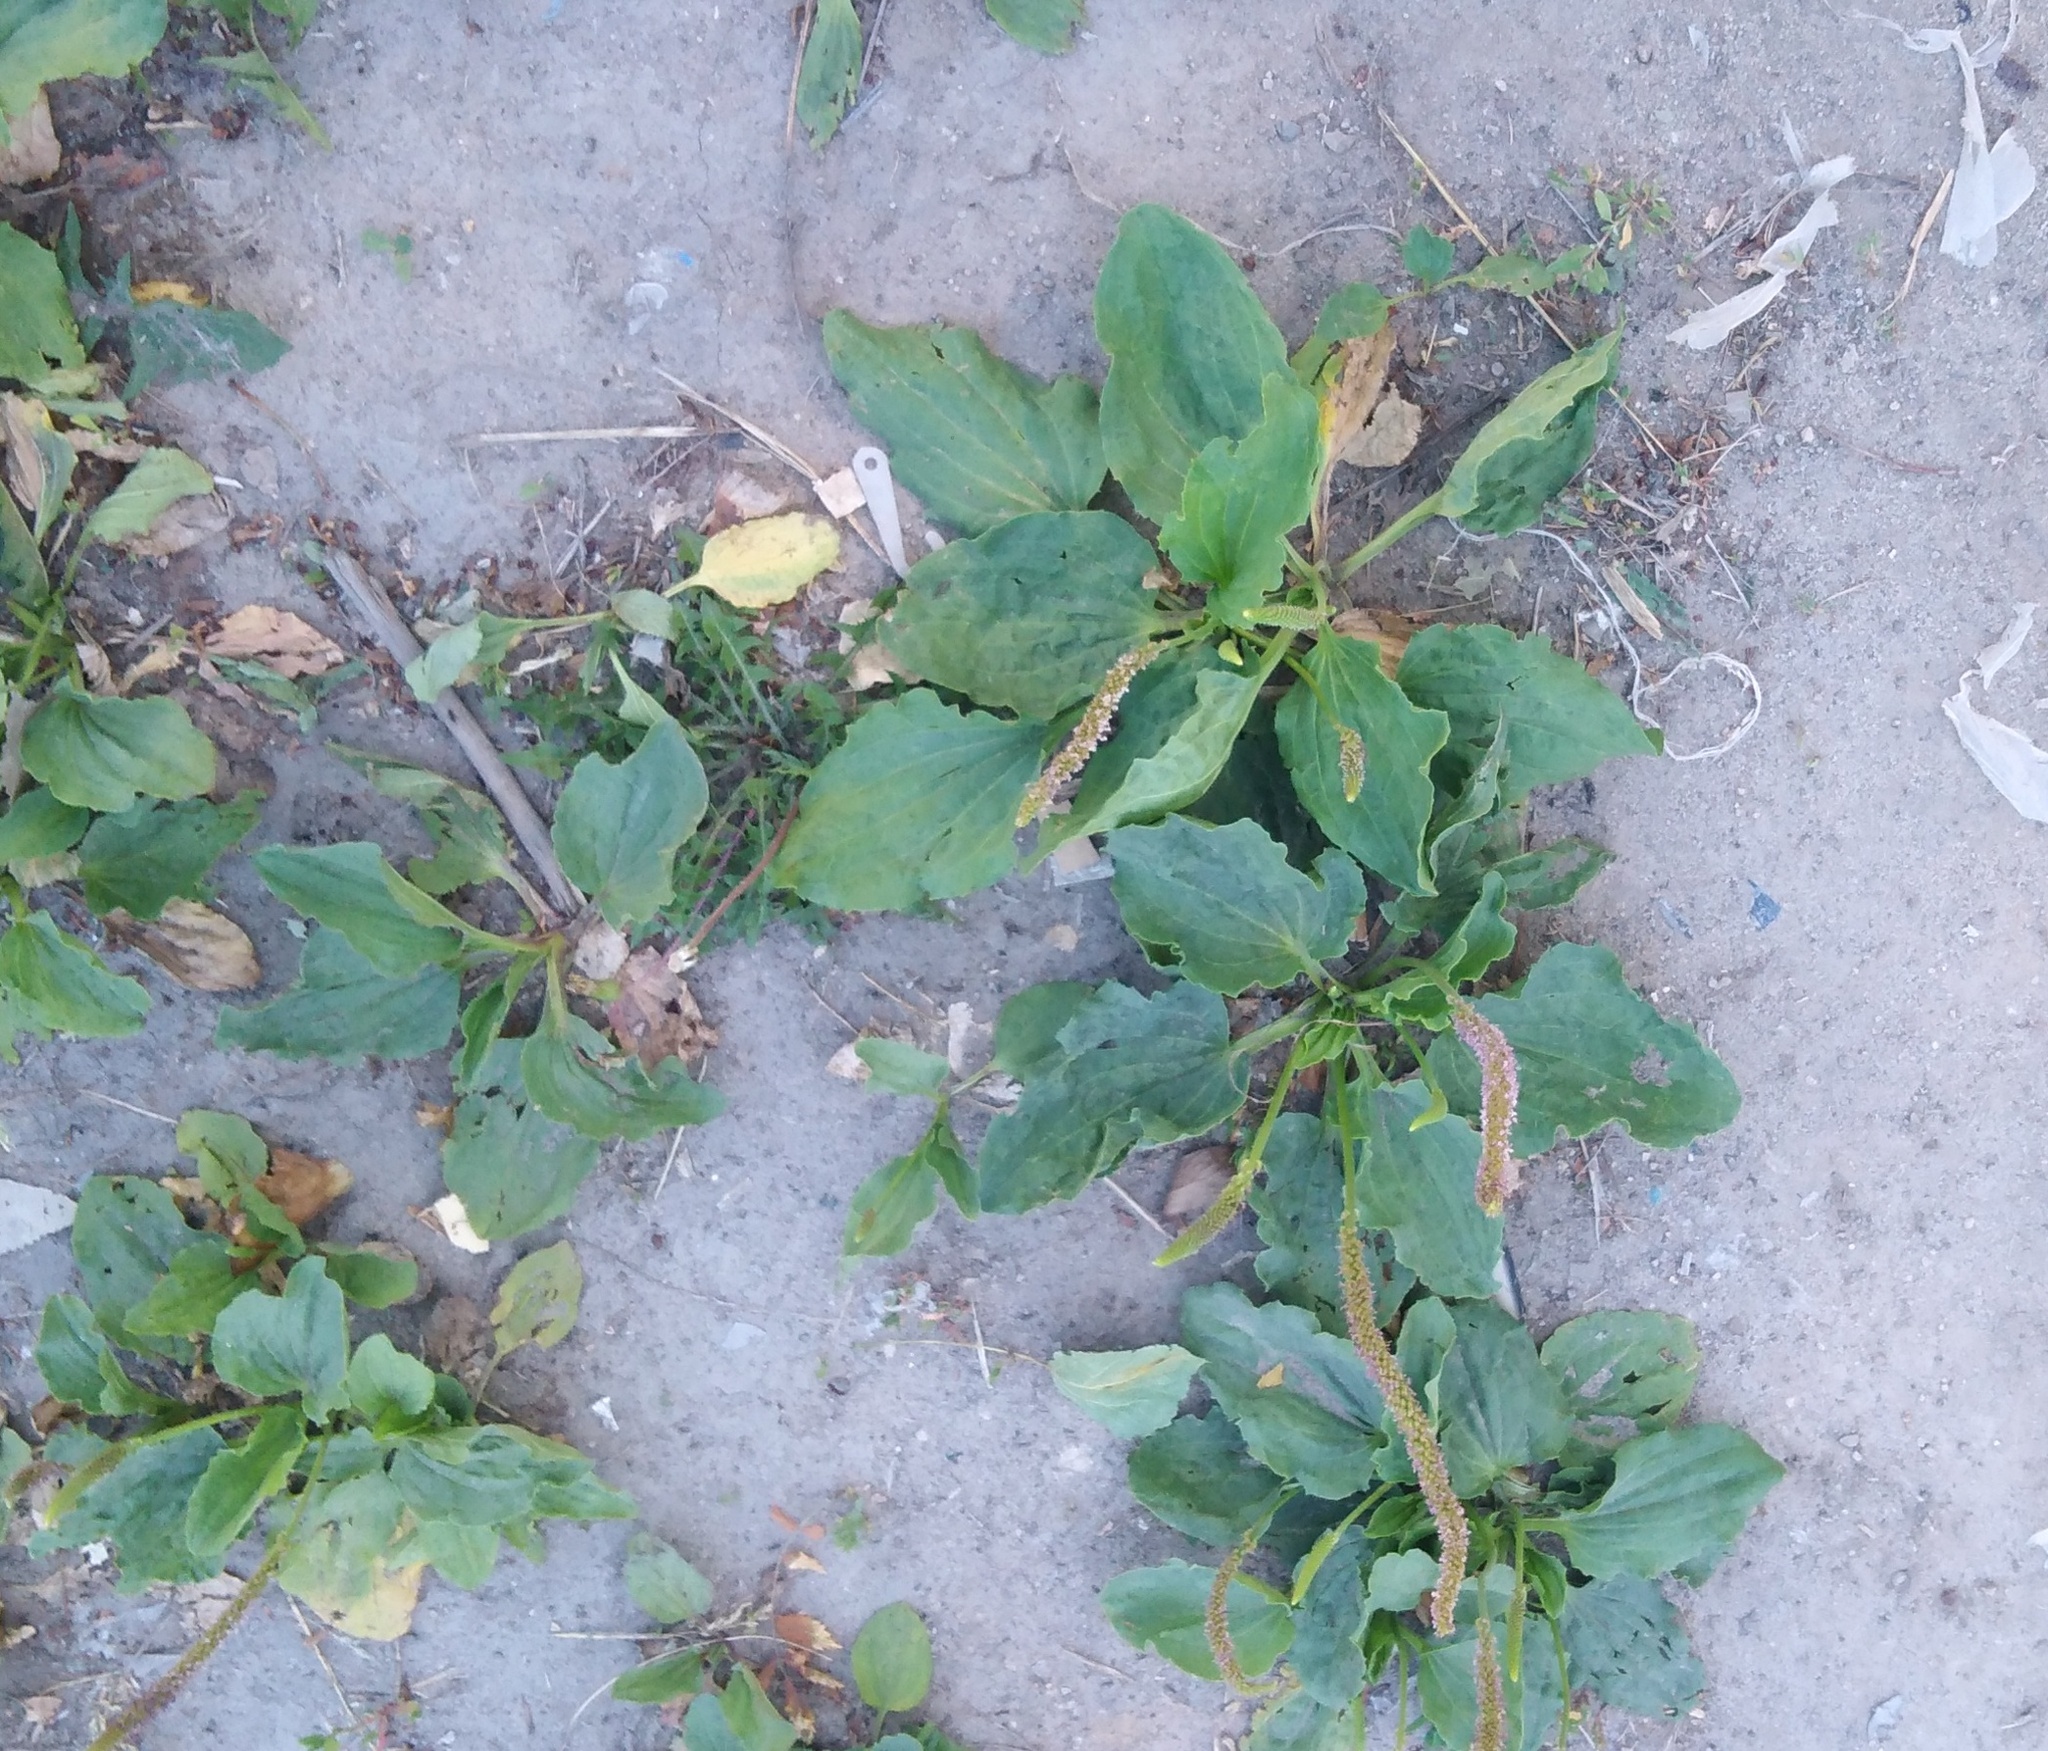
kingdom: Plantae
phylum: Tracheophyta
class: Magnoliopsida
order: Lamiales
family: Plantaginaceae
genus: Plantago
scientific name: Plantago major
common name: Common plantain
